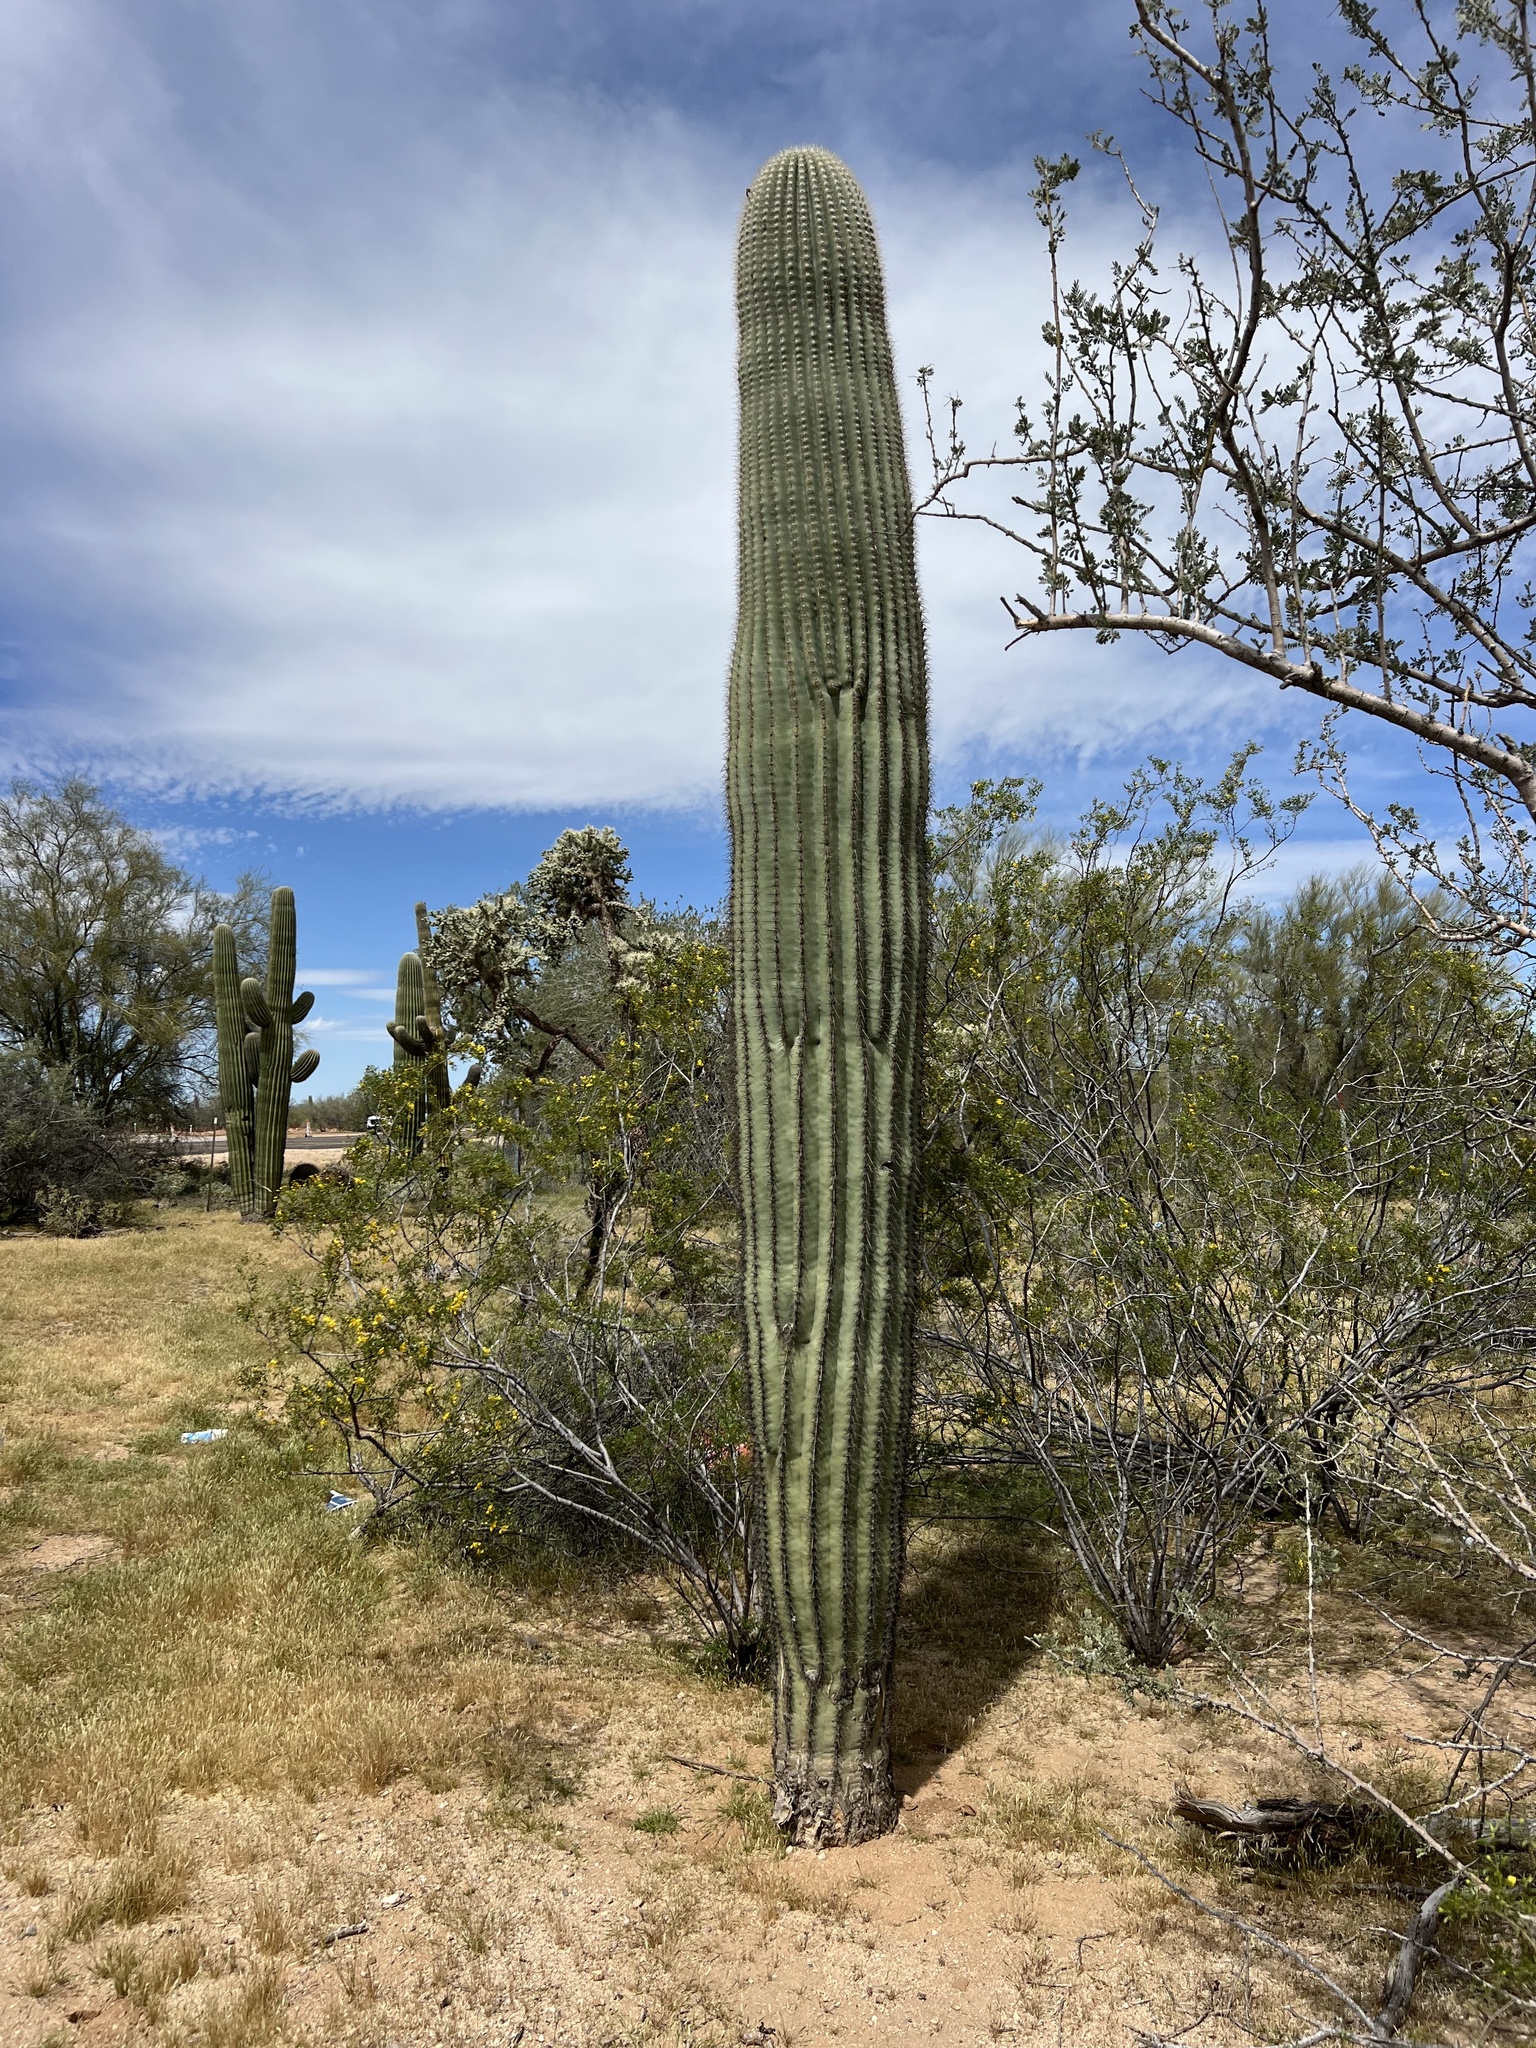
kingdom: Plantae
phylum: Tracheophyta
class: Magnoliopsida
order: Caryophyllales
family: Cactaceae
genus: Carnegiea
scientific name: Carnegiea gigantea
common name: Saguaro
